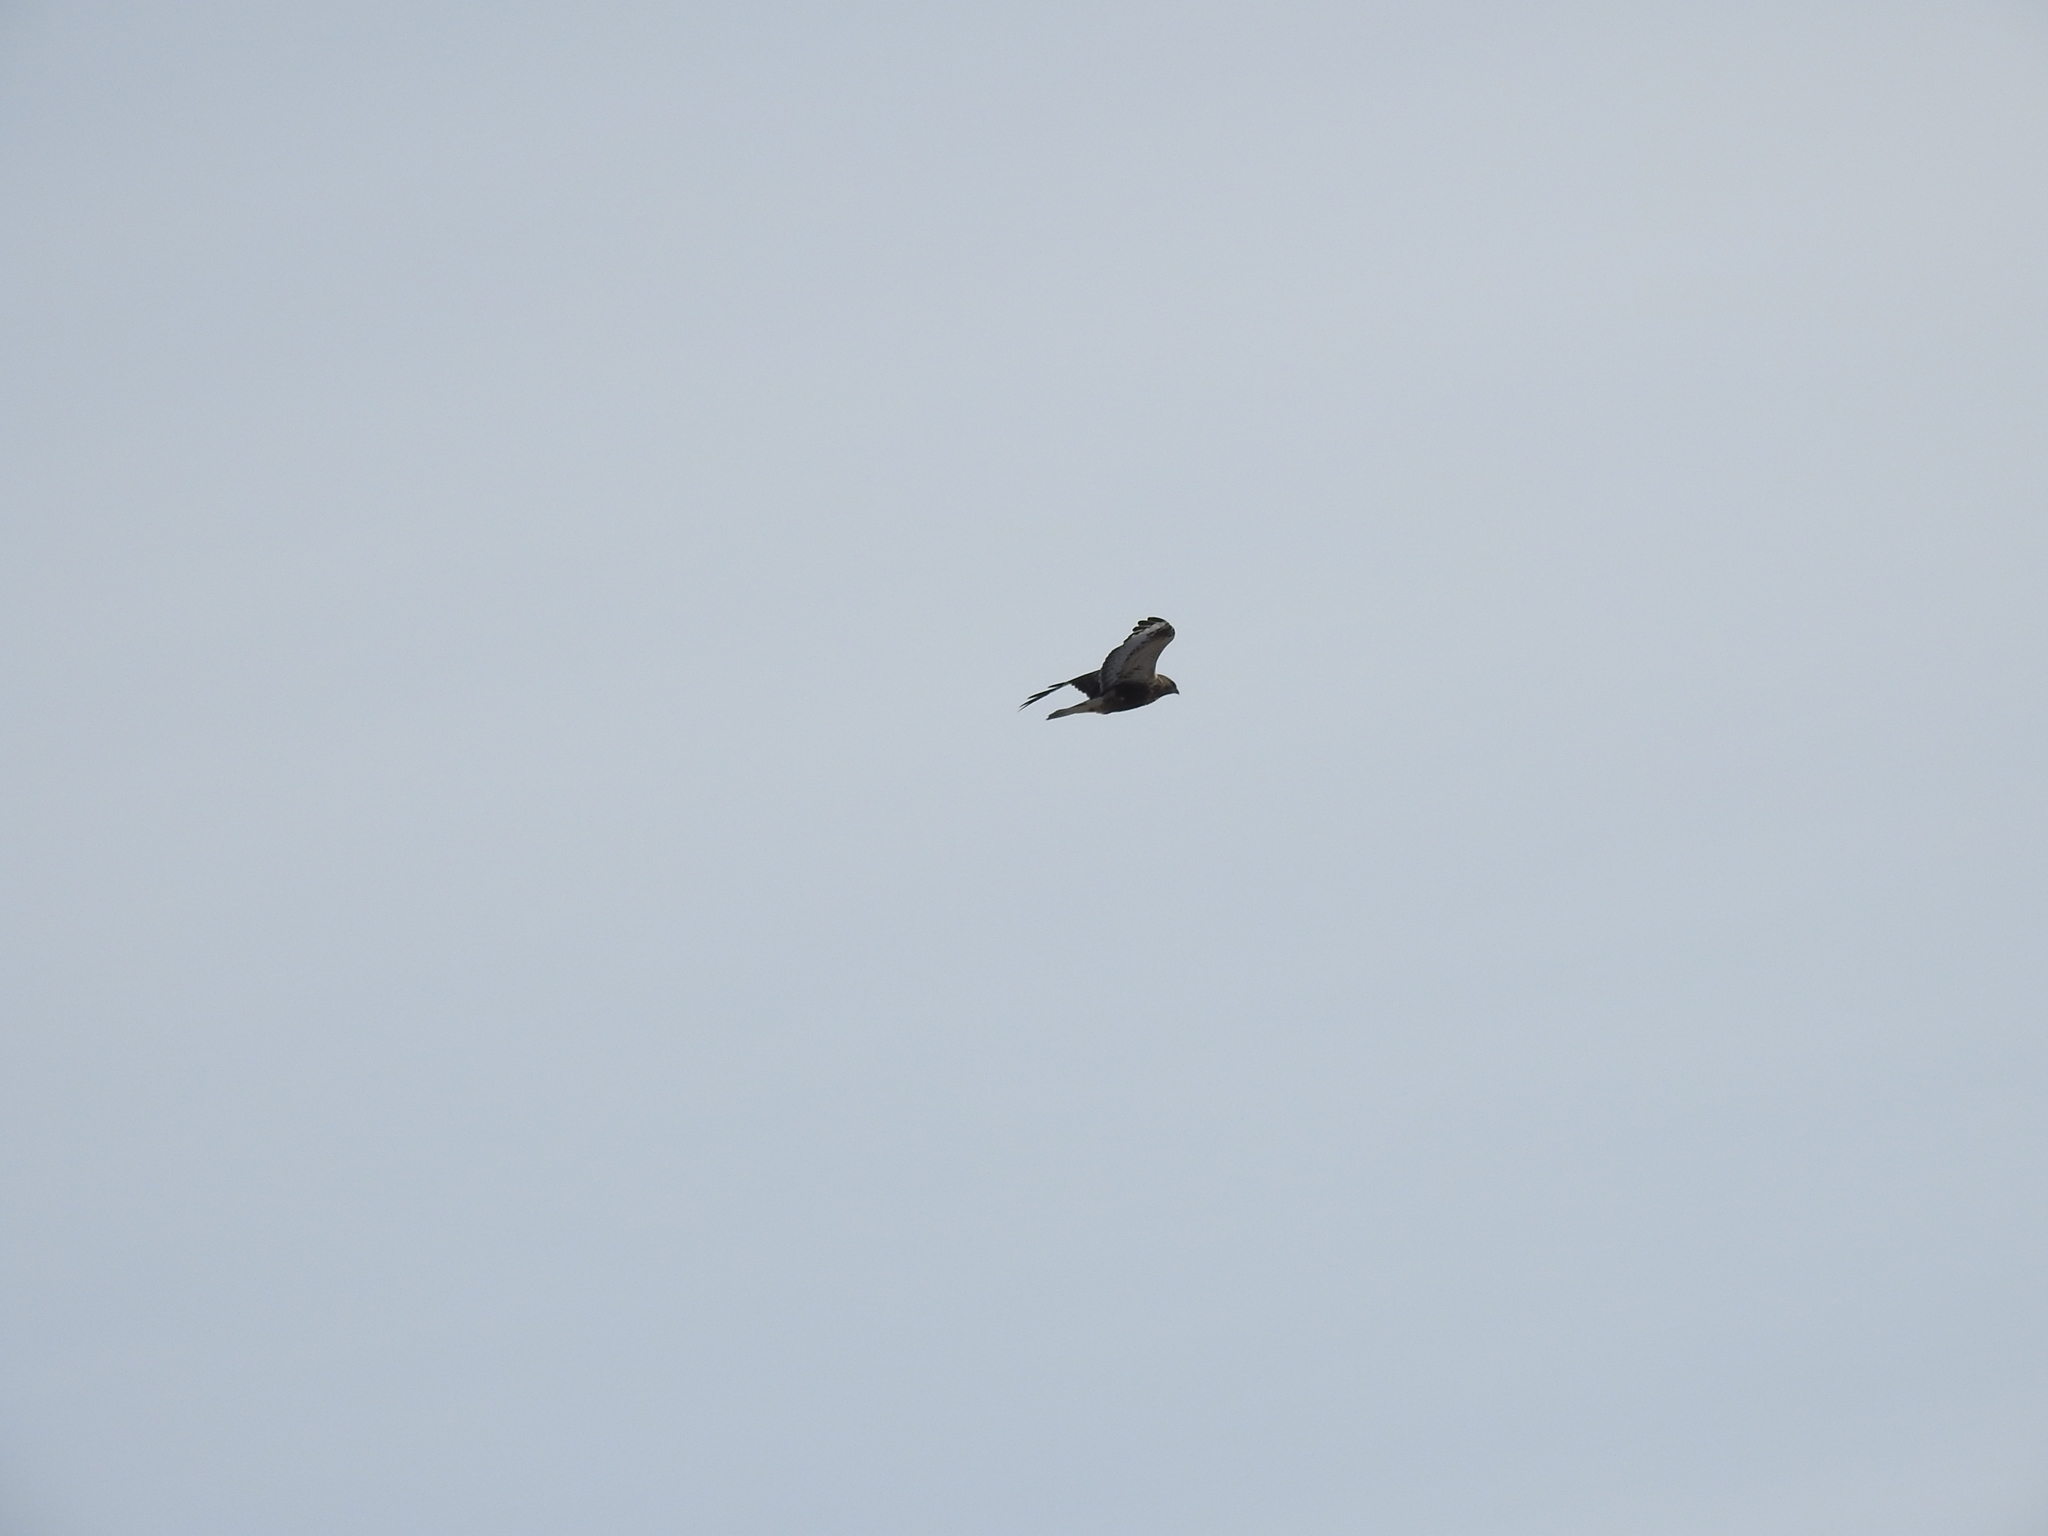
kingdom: Animalia
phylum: Chordata
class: Aves
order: Accipitriformes
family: Accipitridae
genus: Buteo
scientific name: Buteo lagopus
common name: Rough-legged buzzard
